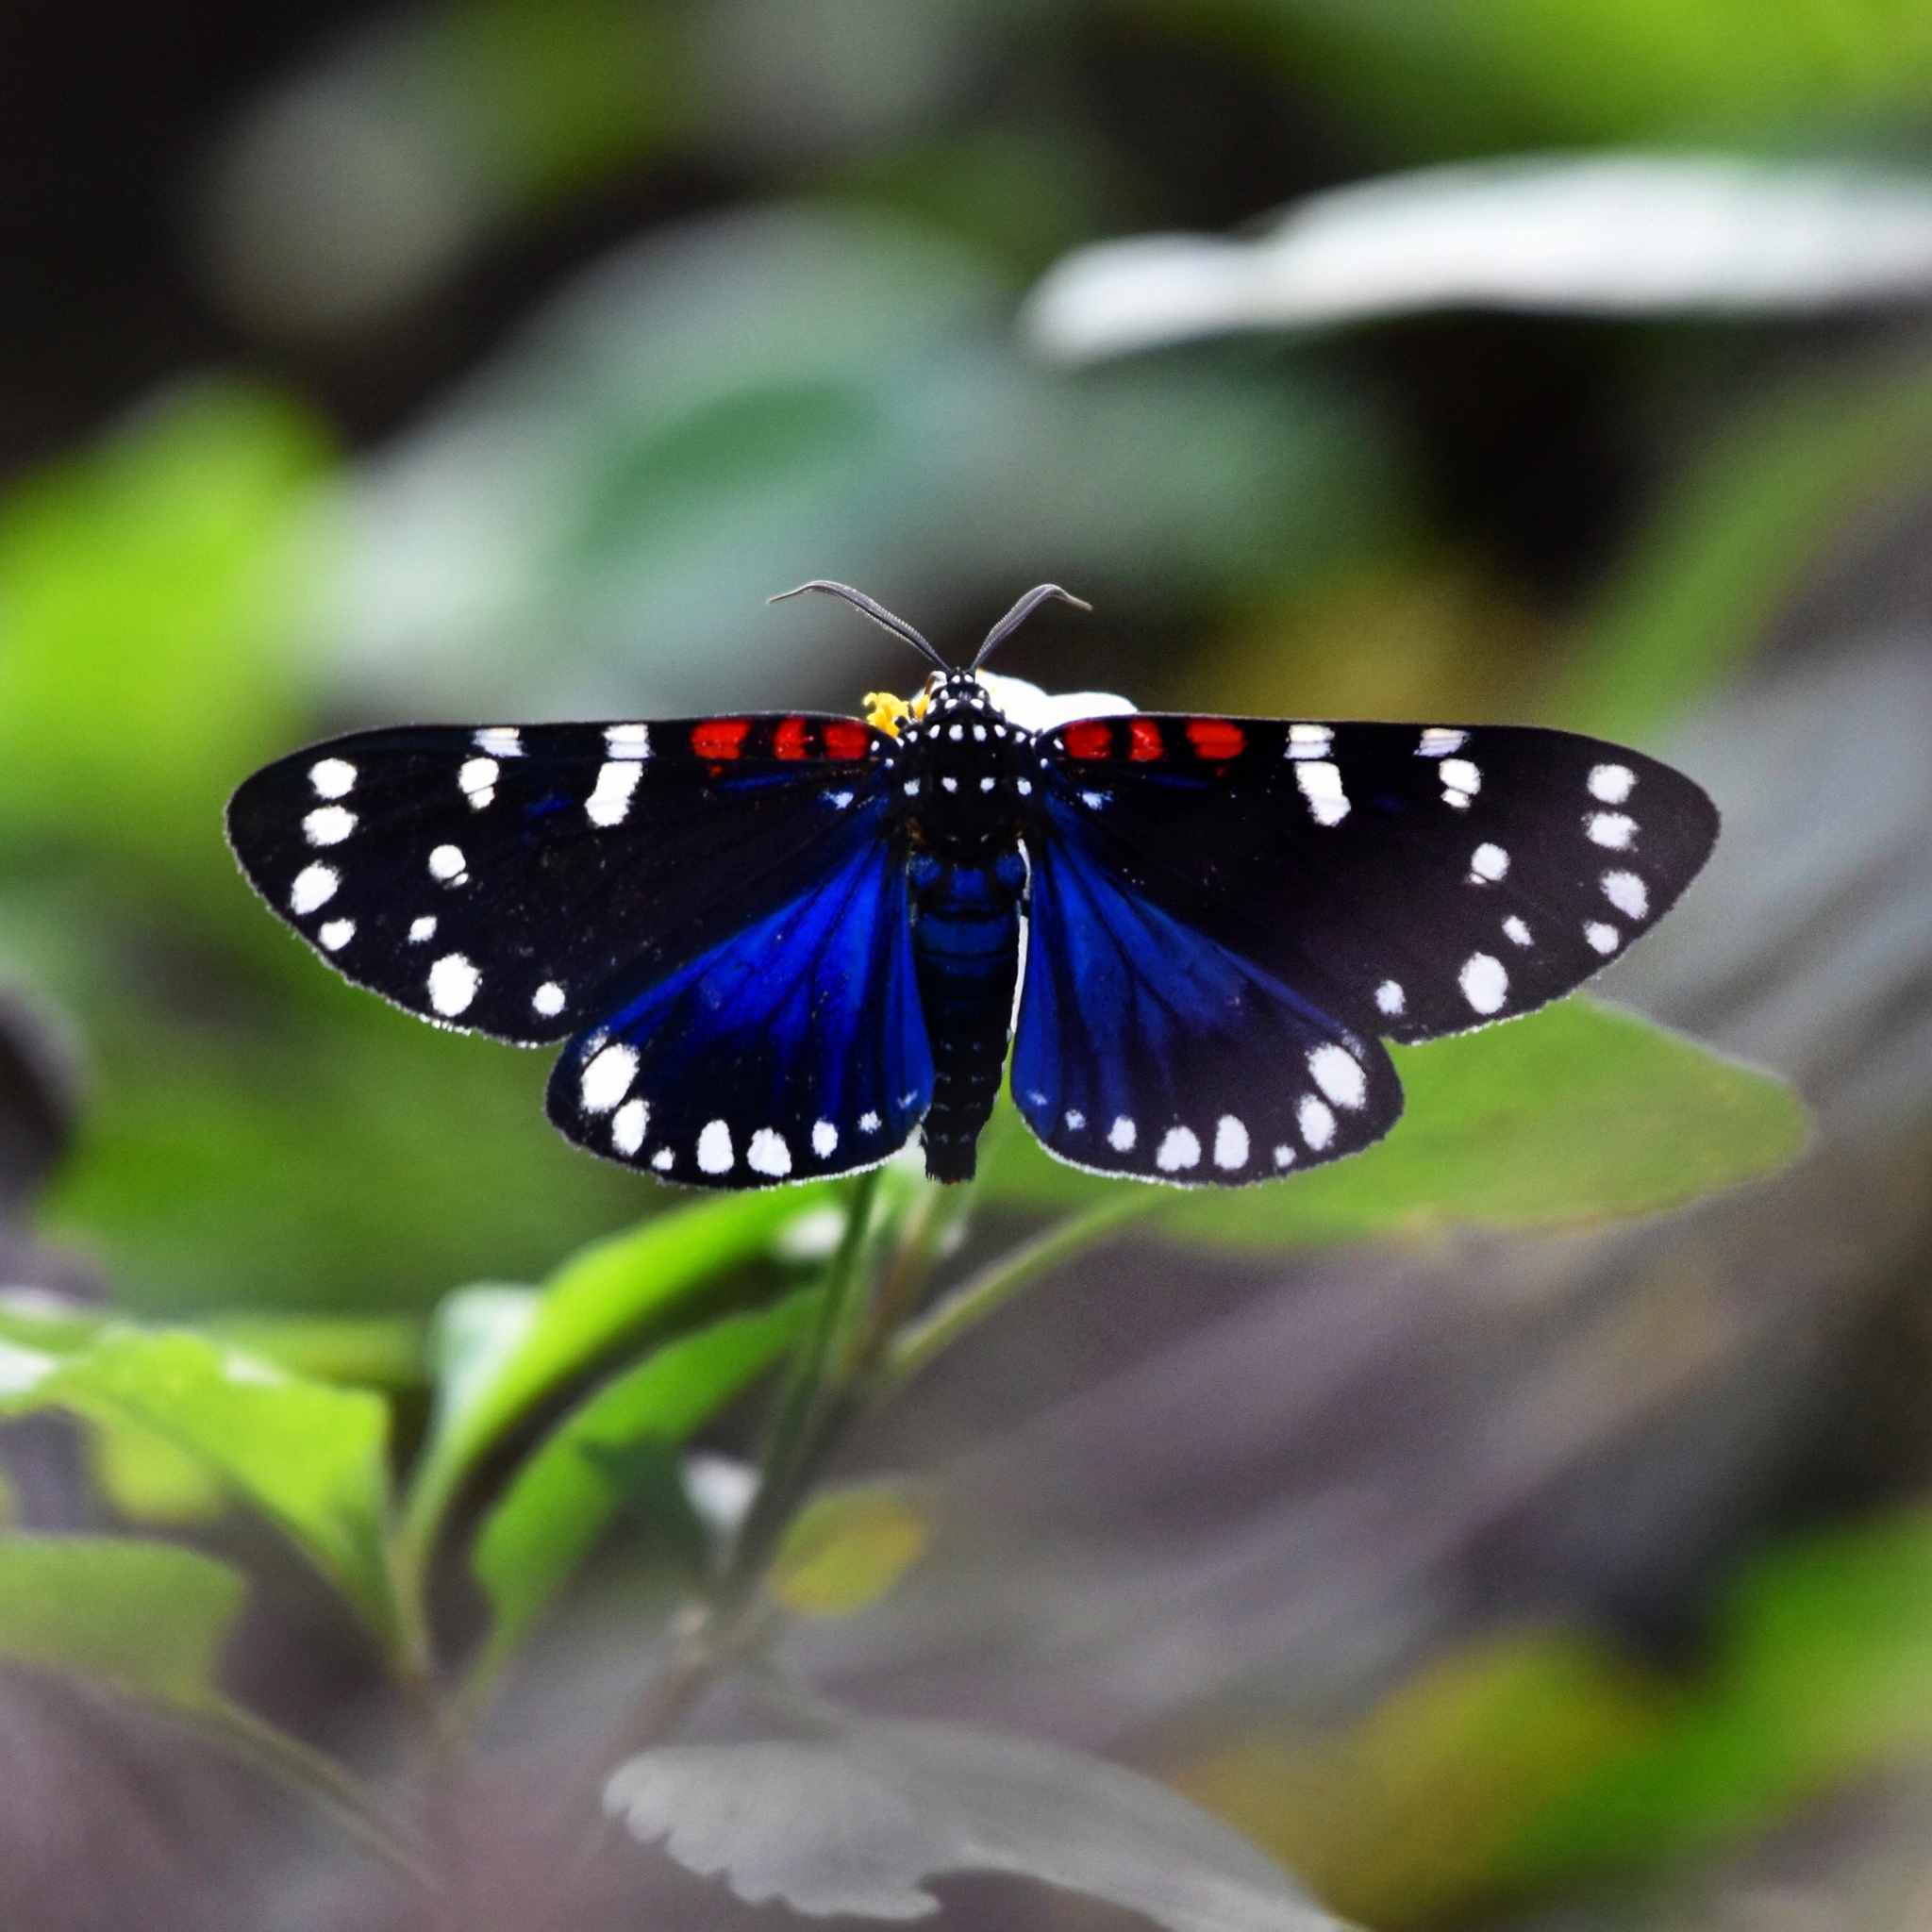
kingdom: Animalia
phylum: Arthropoda
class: Insecta
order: Lepidoptera
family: Erebidae
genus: Composia
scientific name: Composia fidelissima
